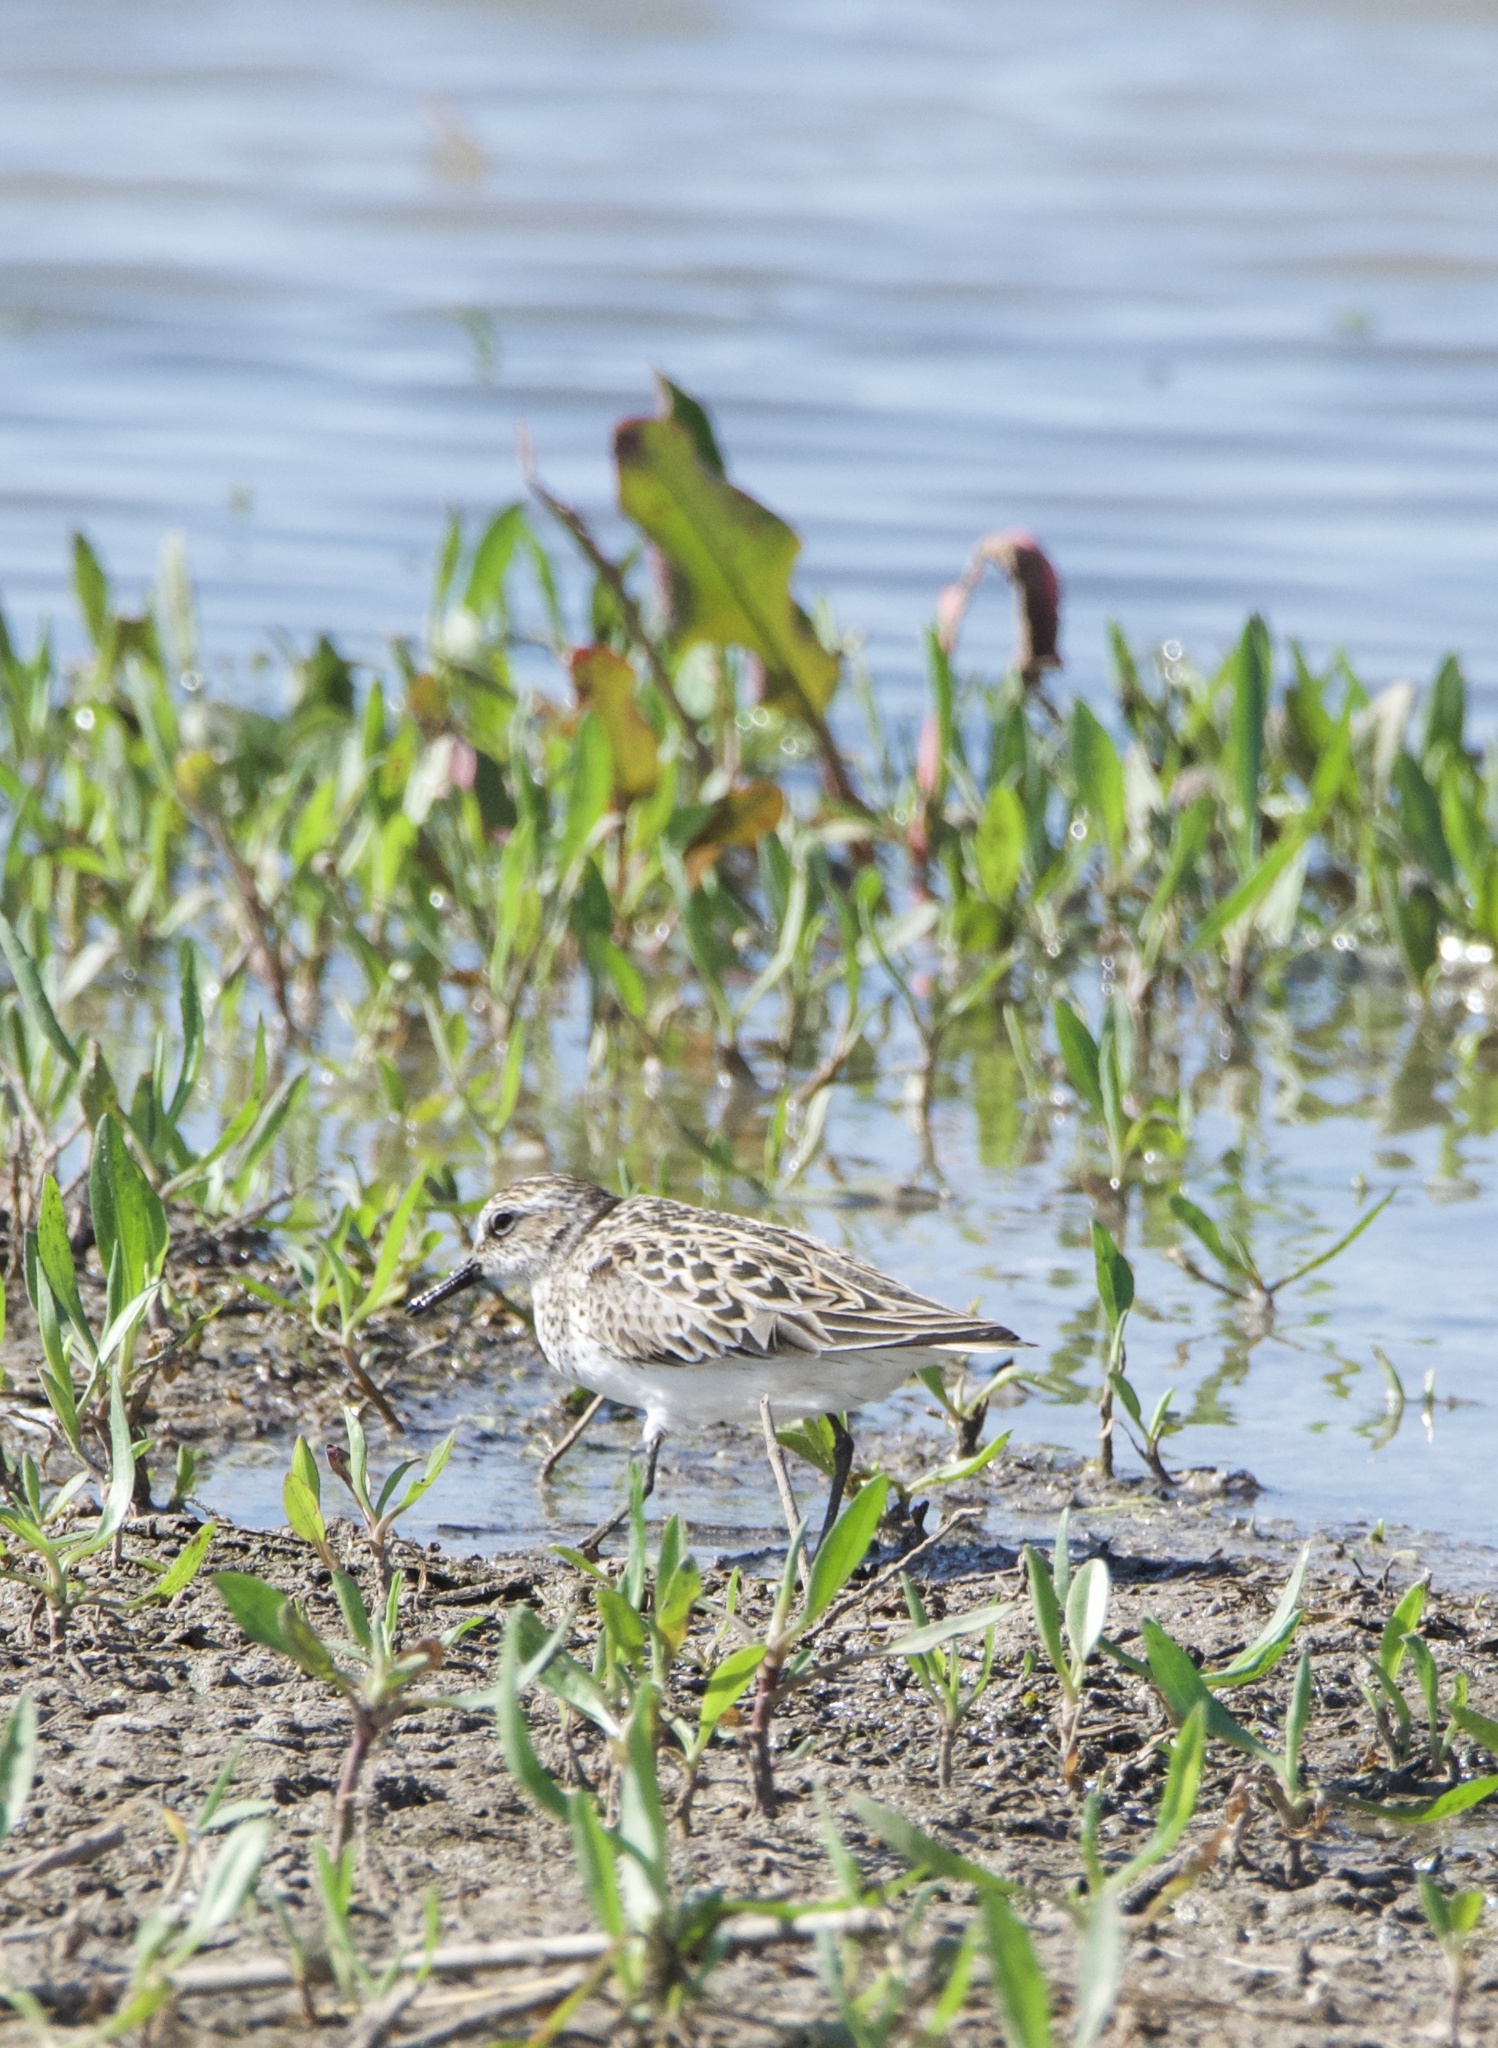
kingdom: Animalia
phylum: Chordata
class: Aves
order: Charadriiformes
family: Scolopacidae
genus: Calidris
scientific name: Calidris pusilla
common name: Semipalmated sandpiper
